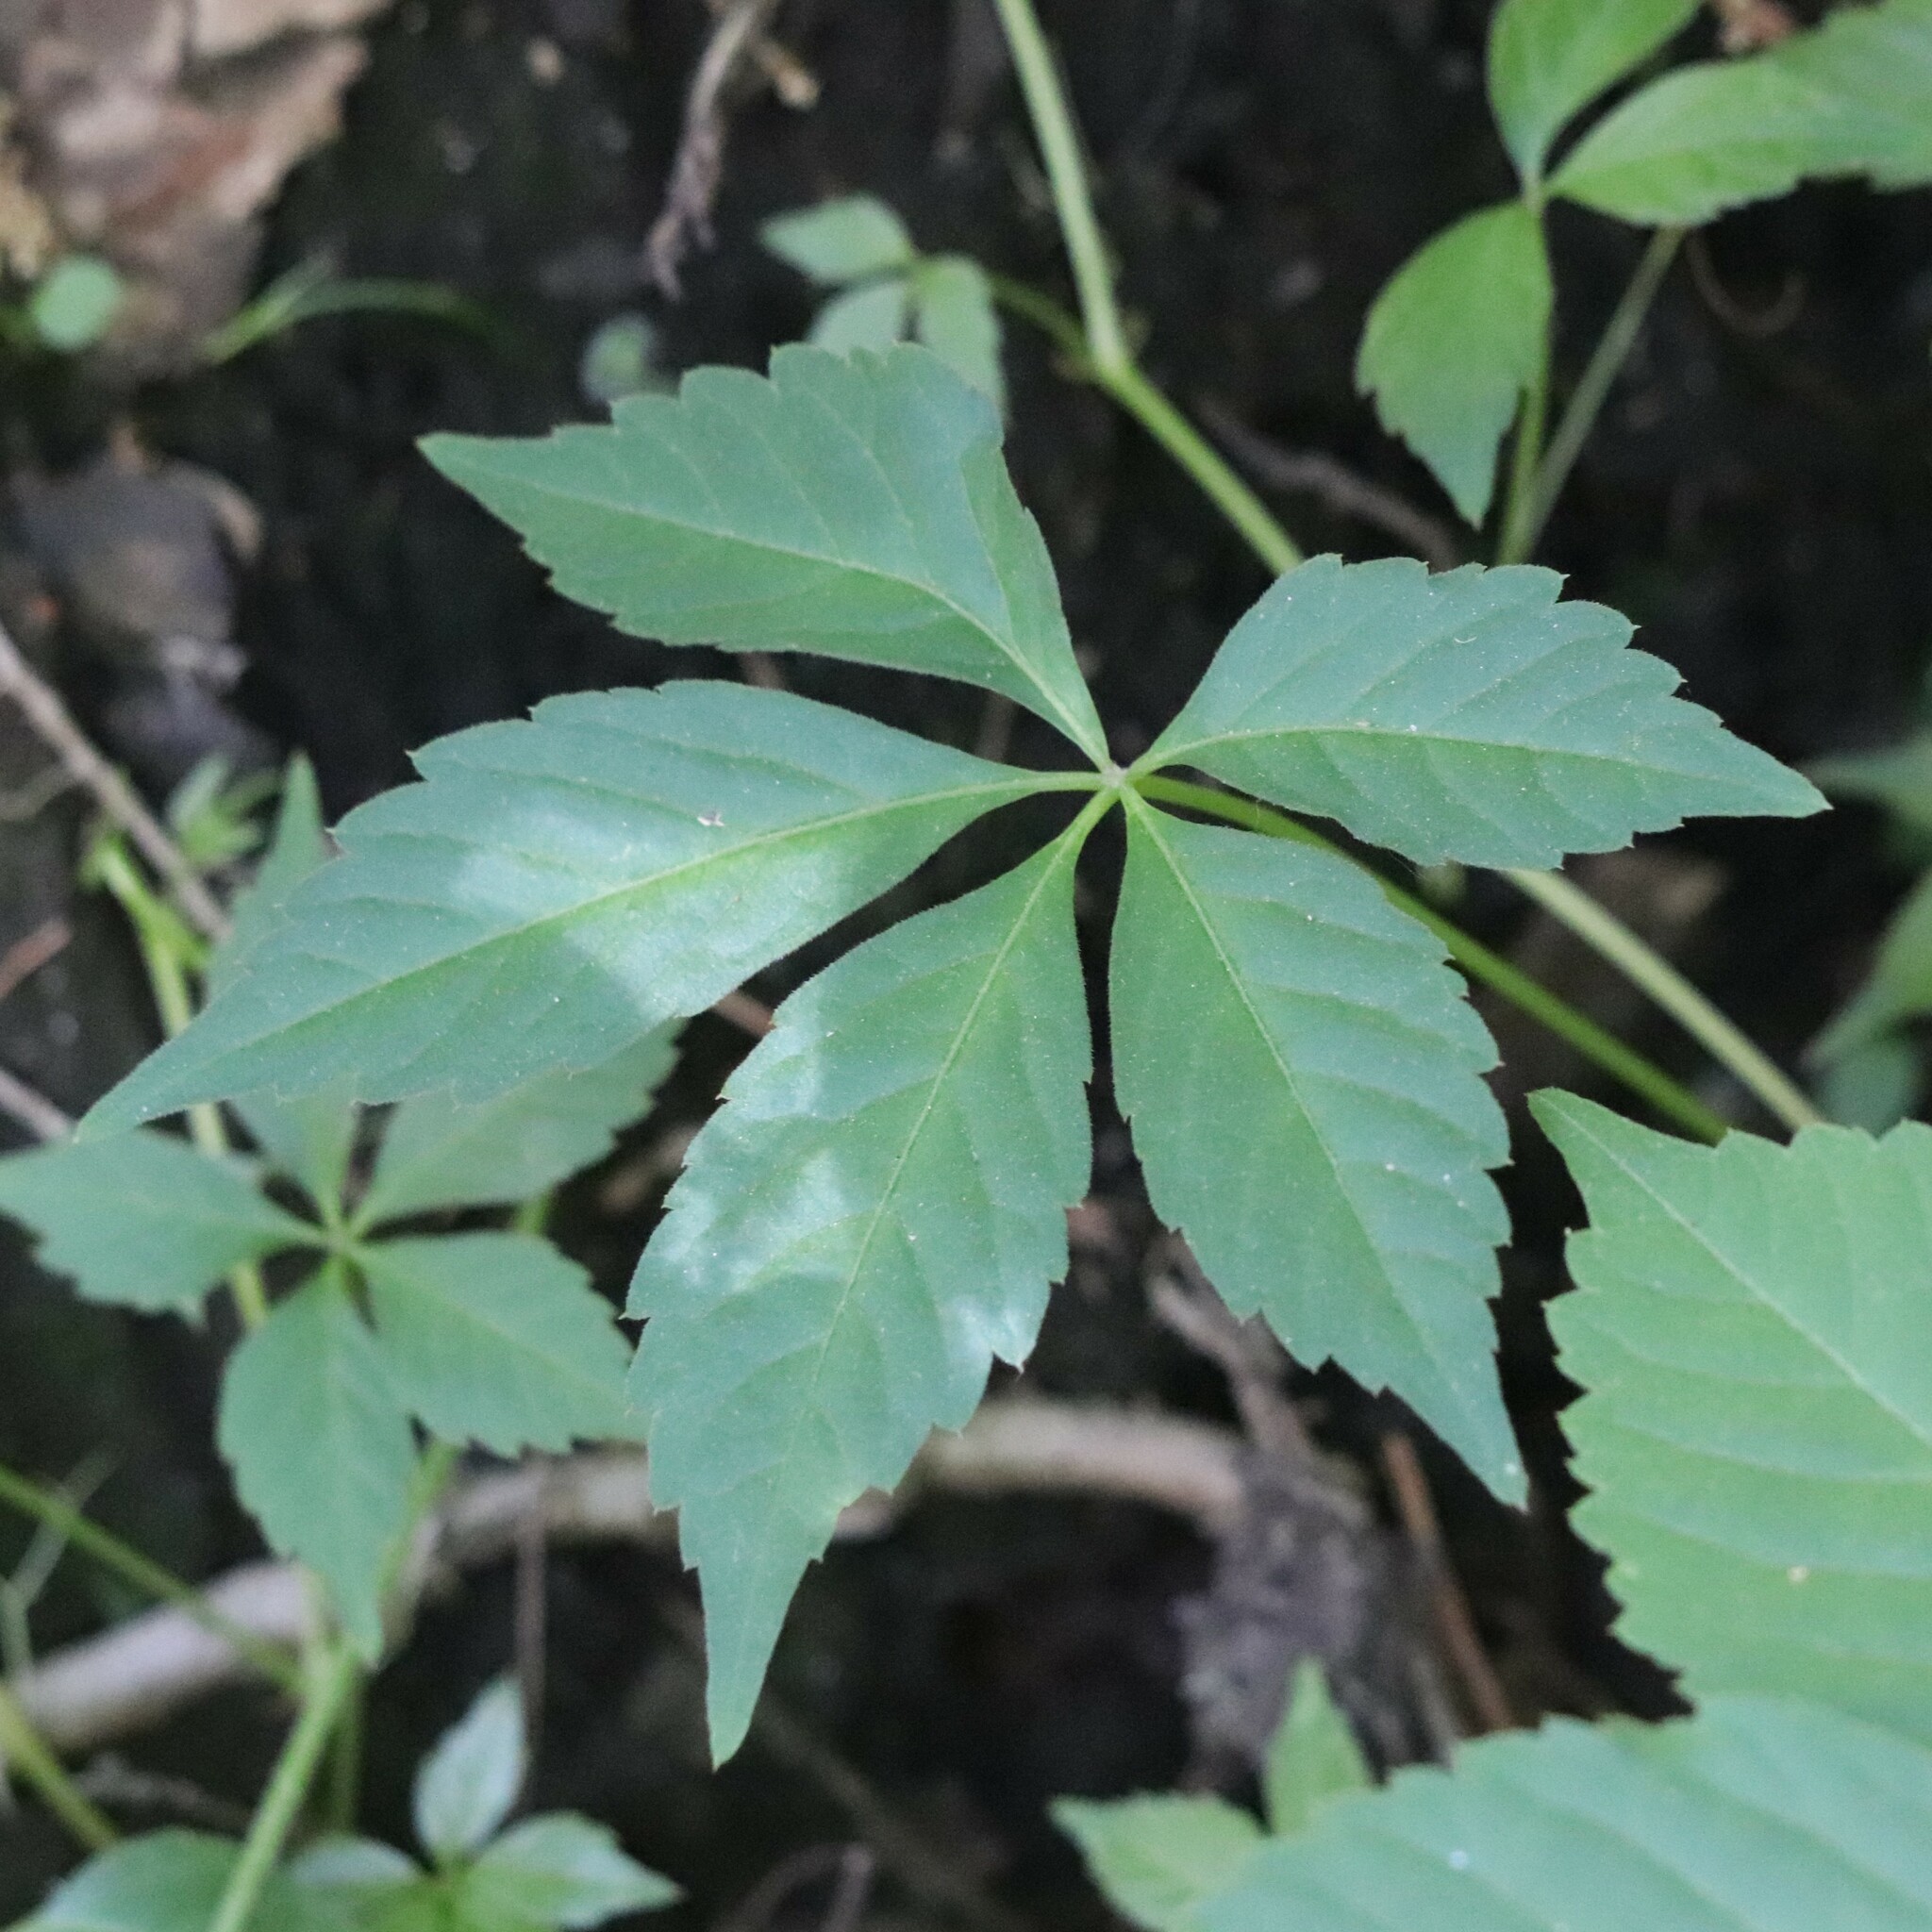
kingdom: Plantae
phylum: Tracheophyta
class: Magnoliopsida
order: Vitales
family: Vitaceae
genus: Parthenocissus
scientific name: Parthenocissus quinquefolia
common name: Virginia-creeper
